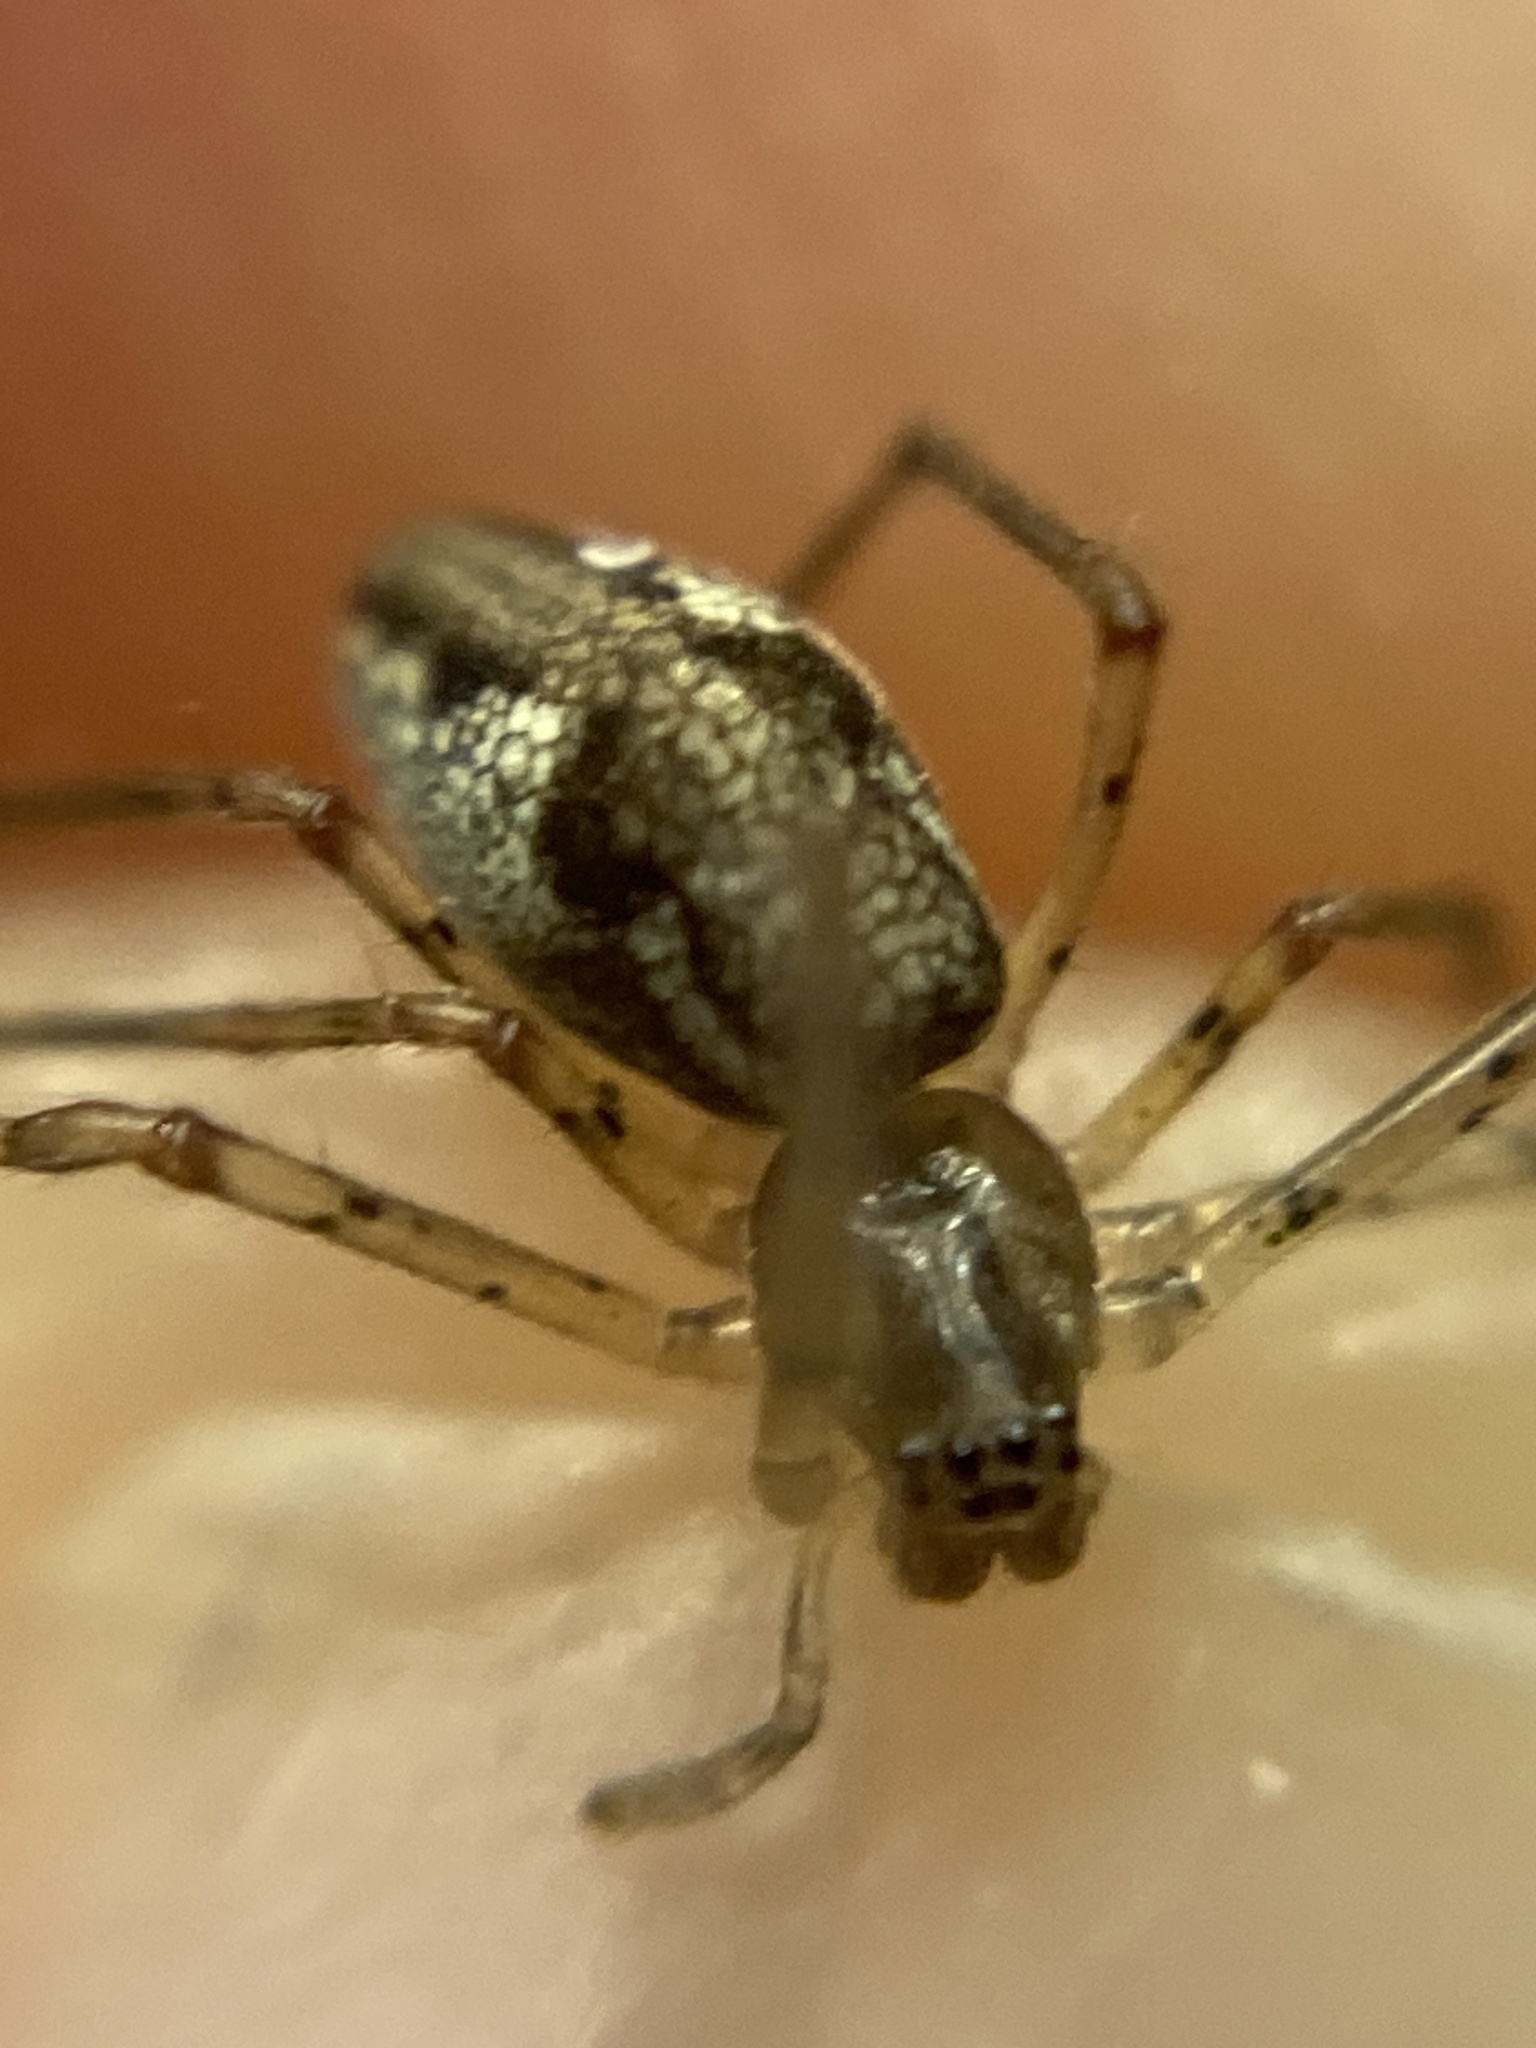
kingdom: Animalia
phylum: Arthropoda
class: Arachnida
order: Araneae
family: Tetragnathidae
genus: Tetragnatha
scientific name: Tetragnatha obtusa
